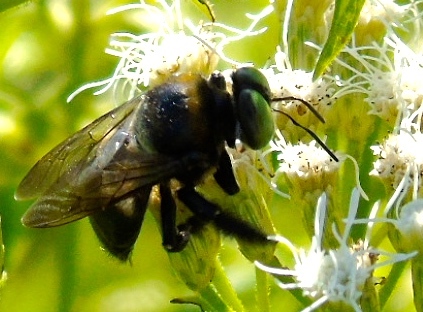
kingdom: Animalia
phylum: Arthropoda
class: Insecta
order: Hymenoptera
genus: Schonnherria
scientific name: Schonnherria
